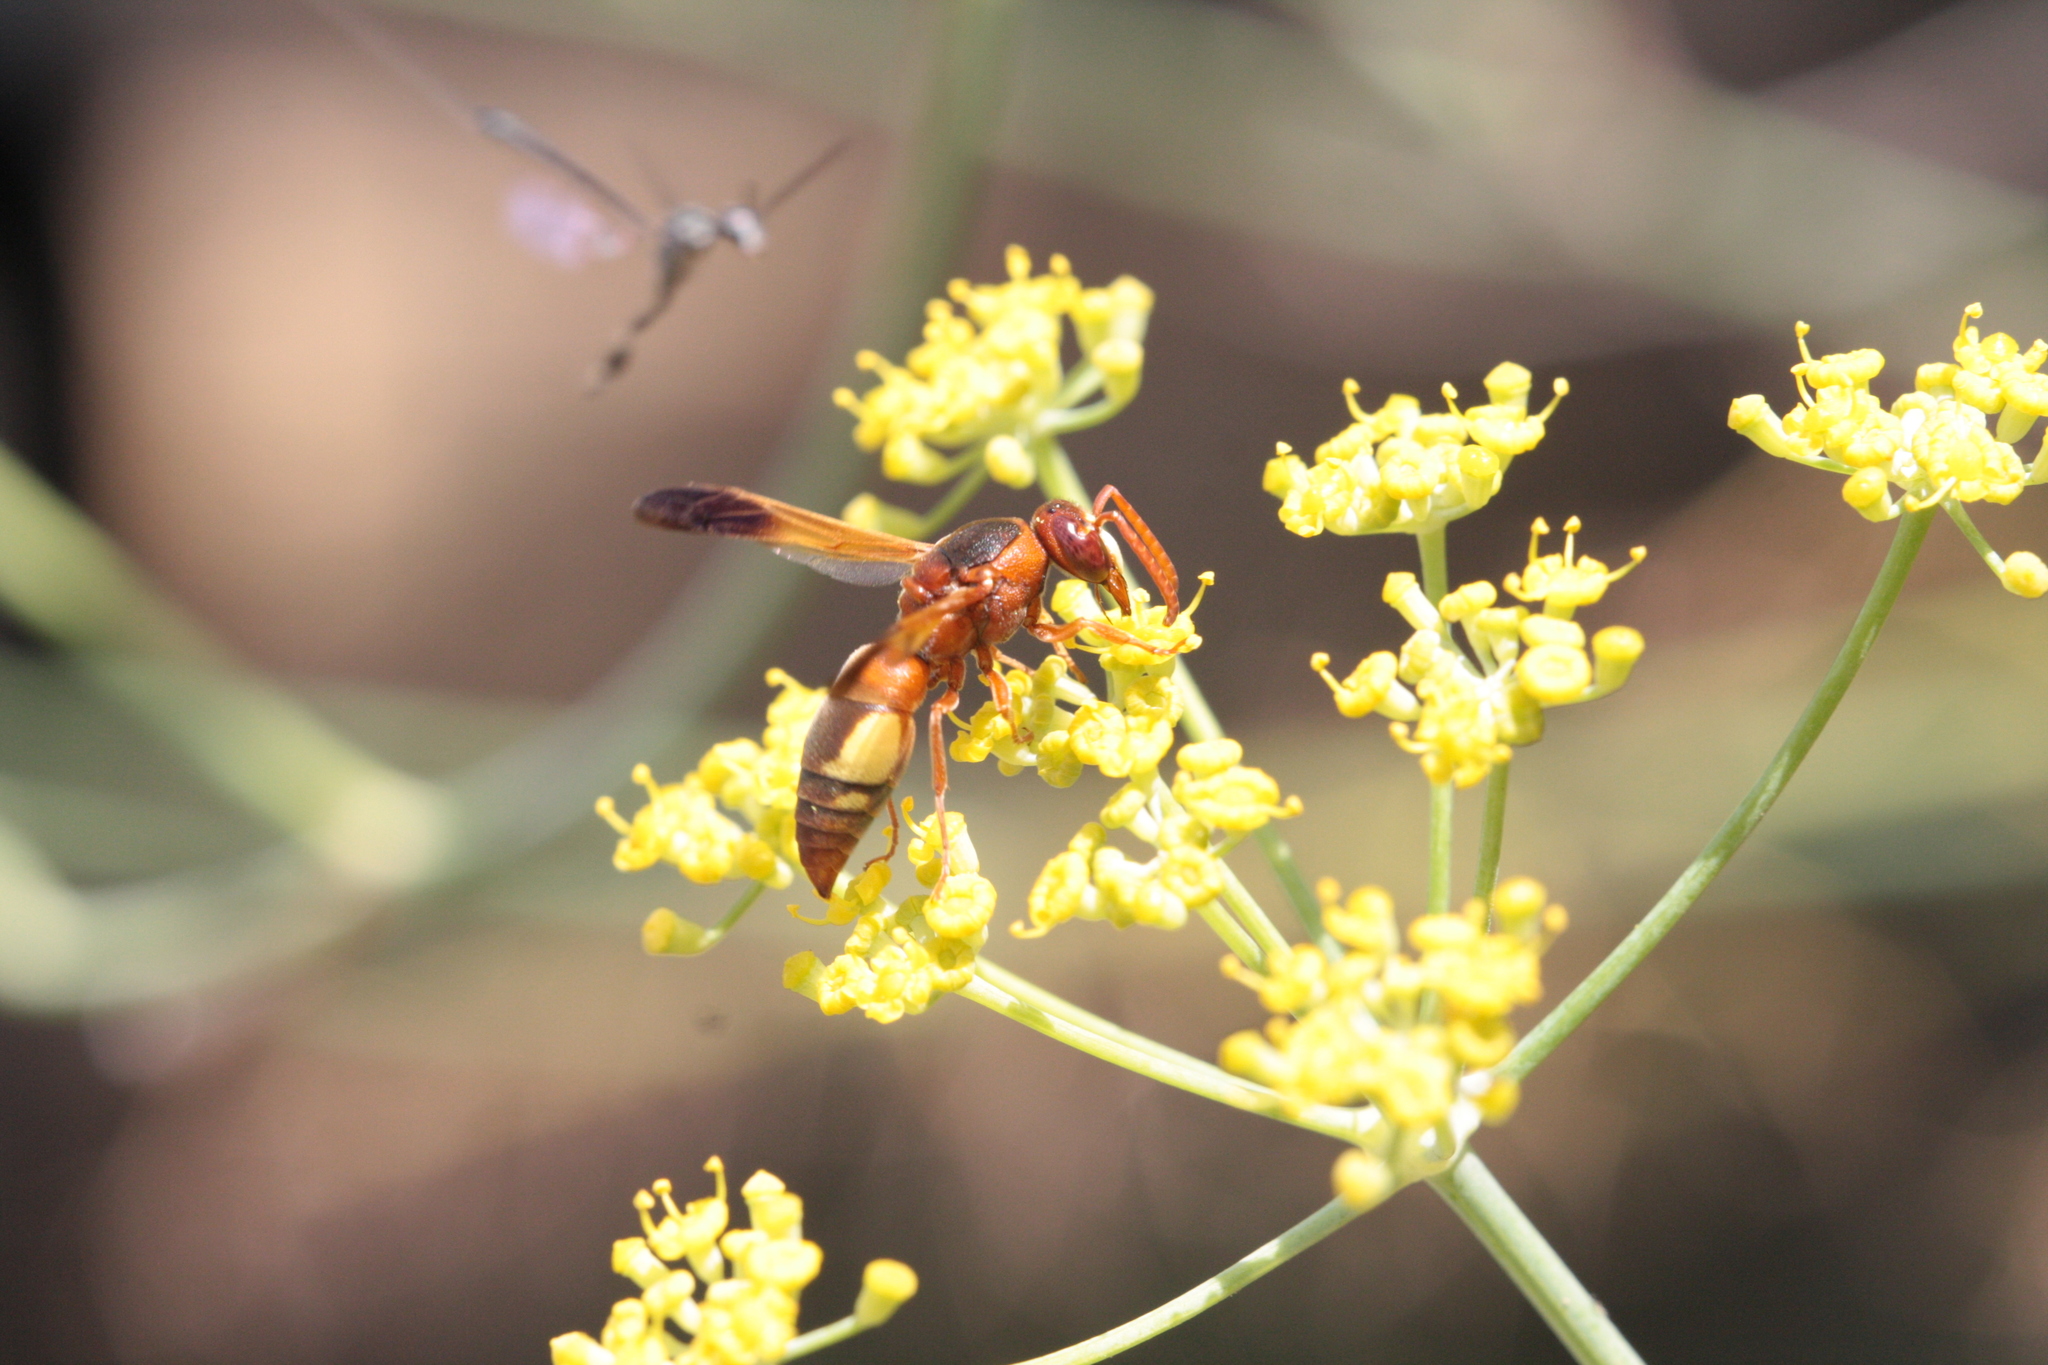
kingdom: Animalia
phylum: Arthropoda
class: Insecta
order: Hymenoptera
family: Eumenidae
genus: Rhynchium
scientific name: Rhynchium oculatum
